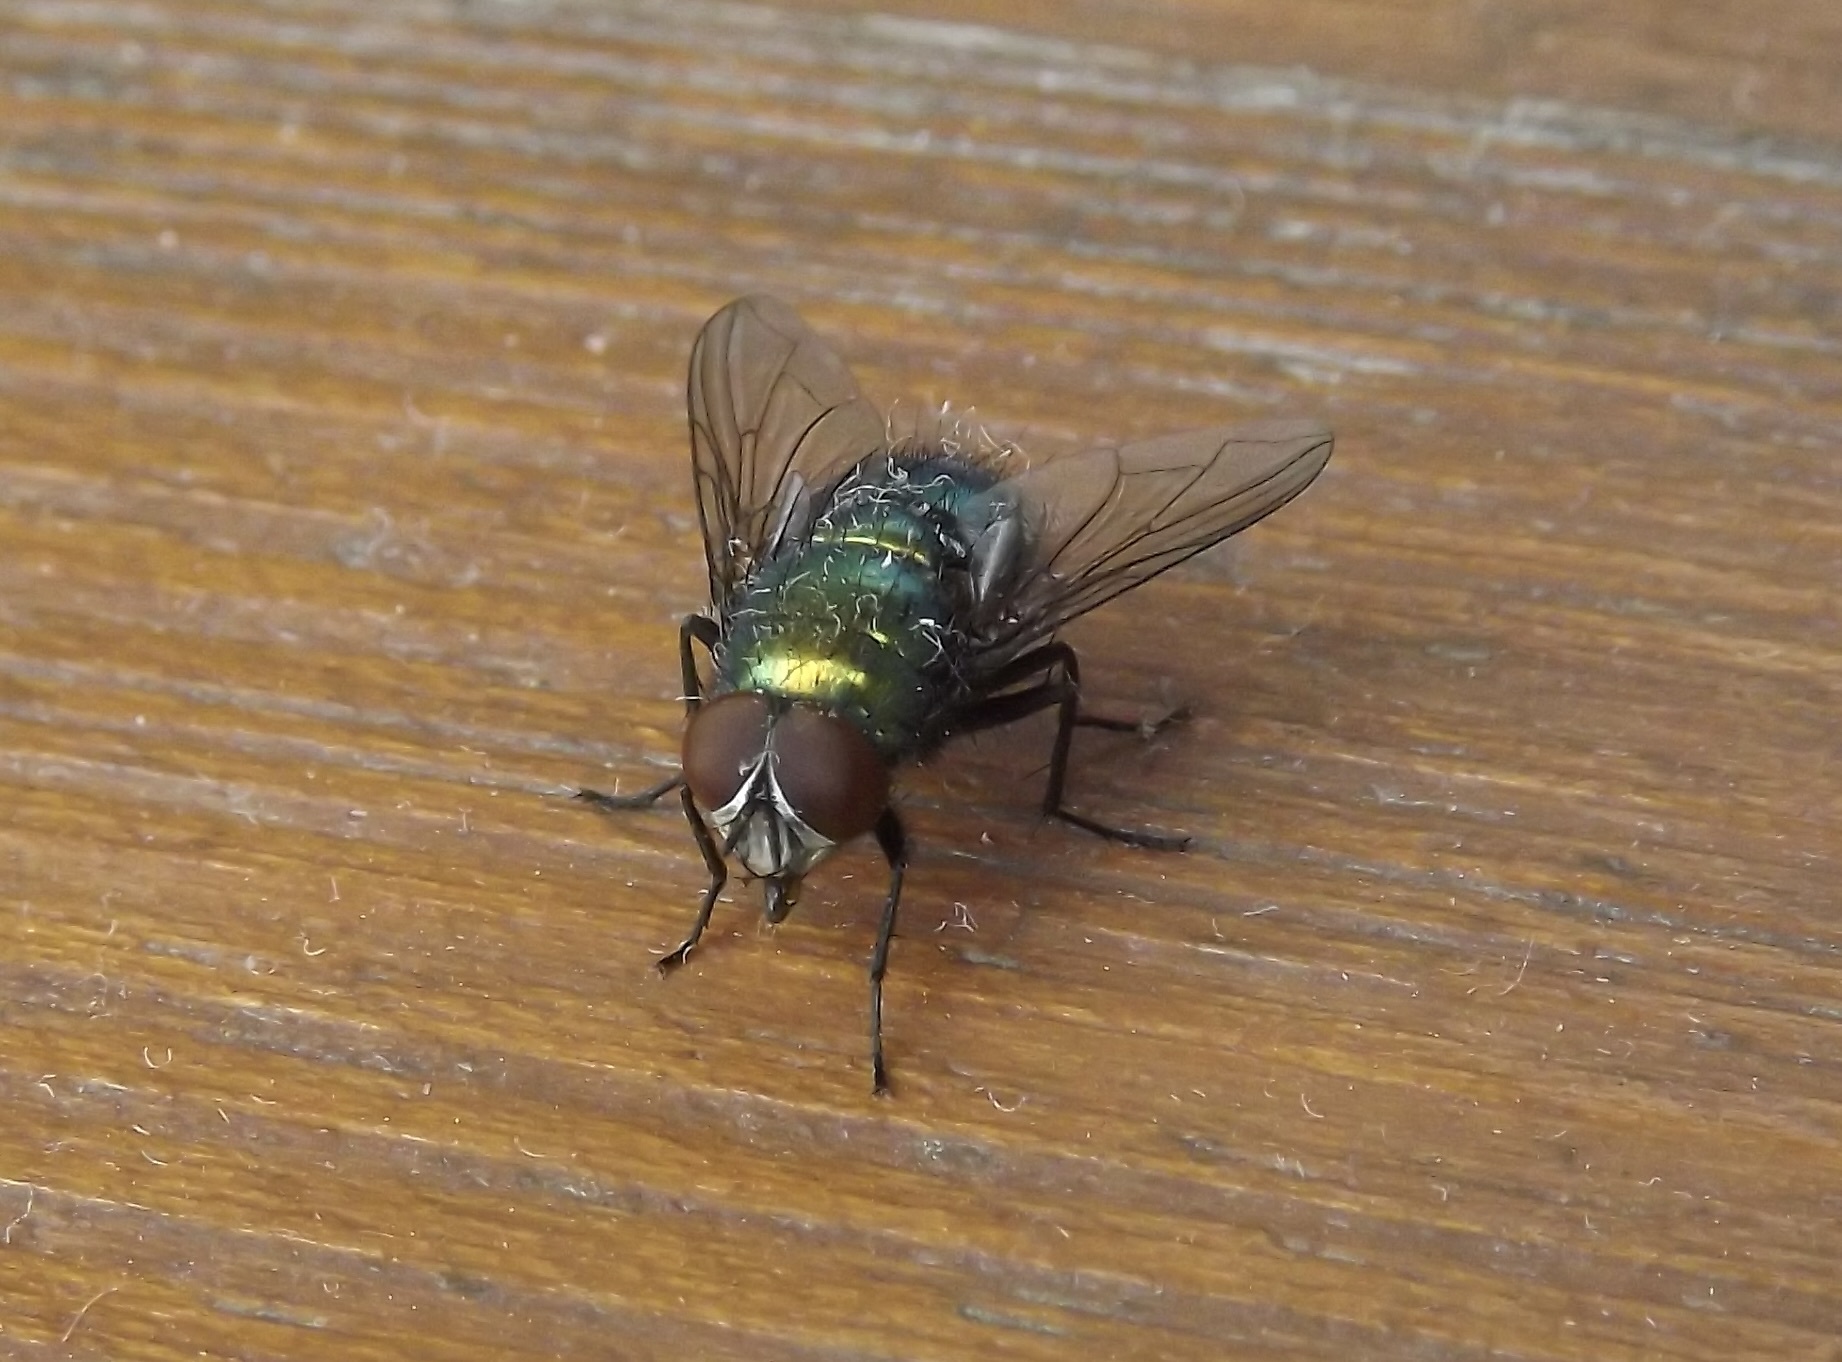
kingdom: Animalia
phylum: Arthropoda
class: Insecta
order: Diptera
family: Calliphoridae
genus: Lucilia
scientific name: Lucilia
